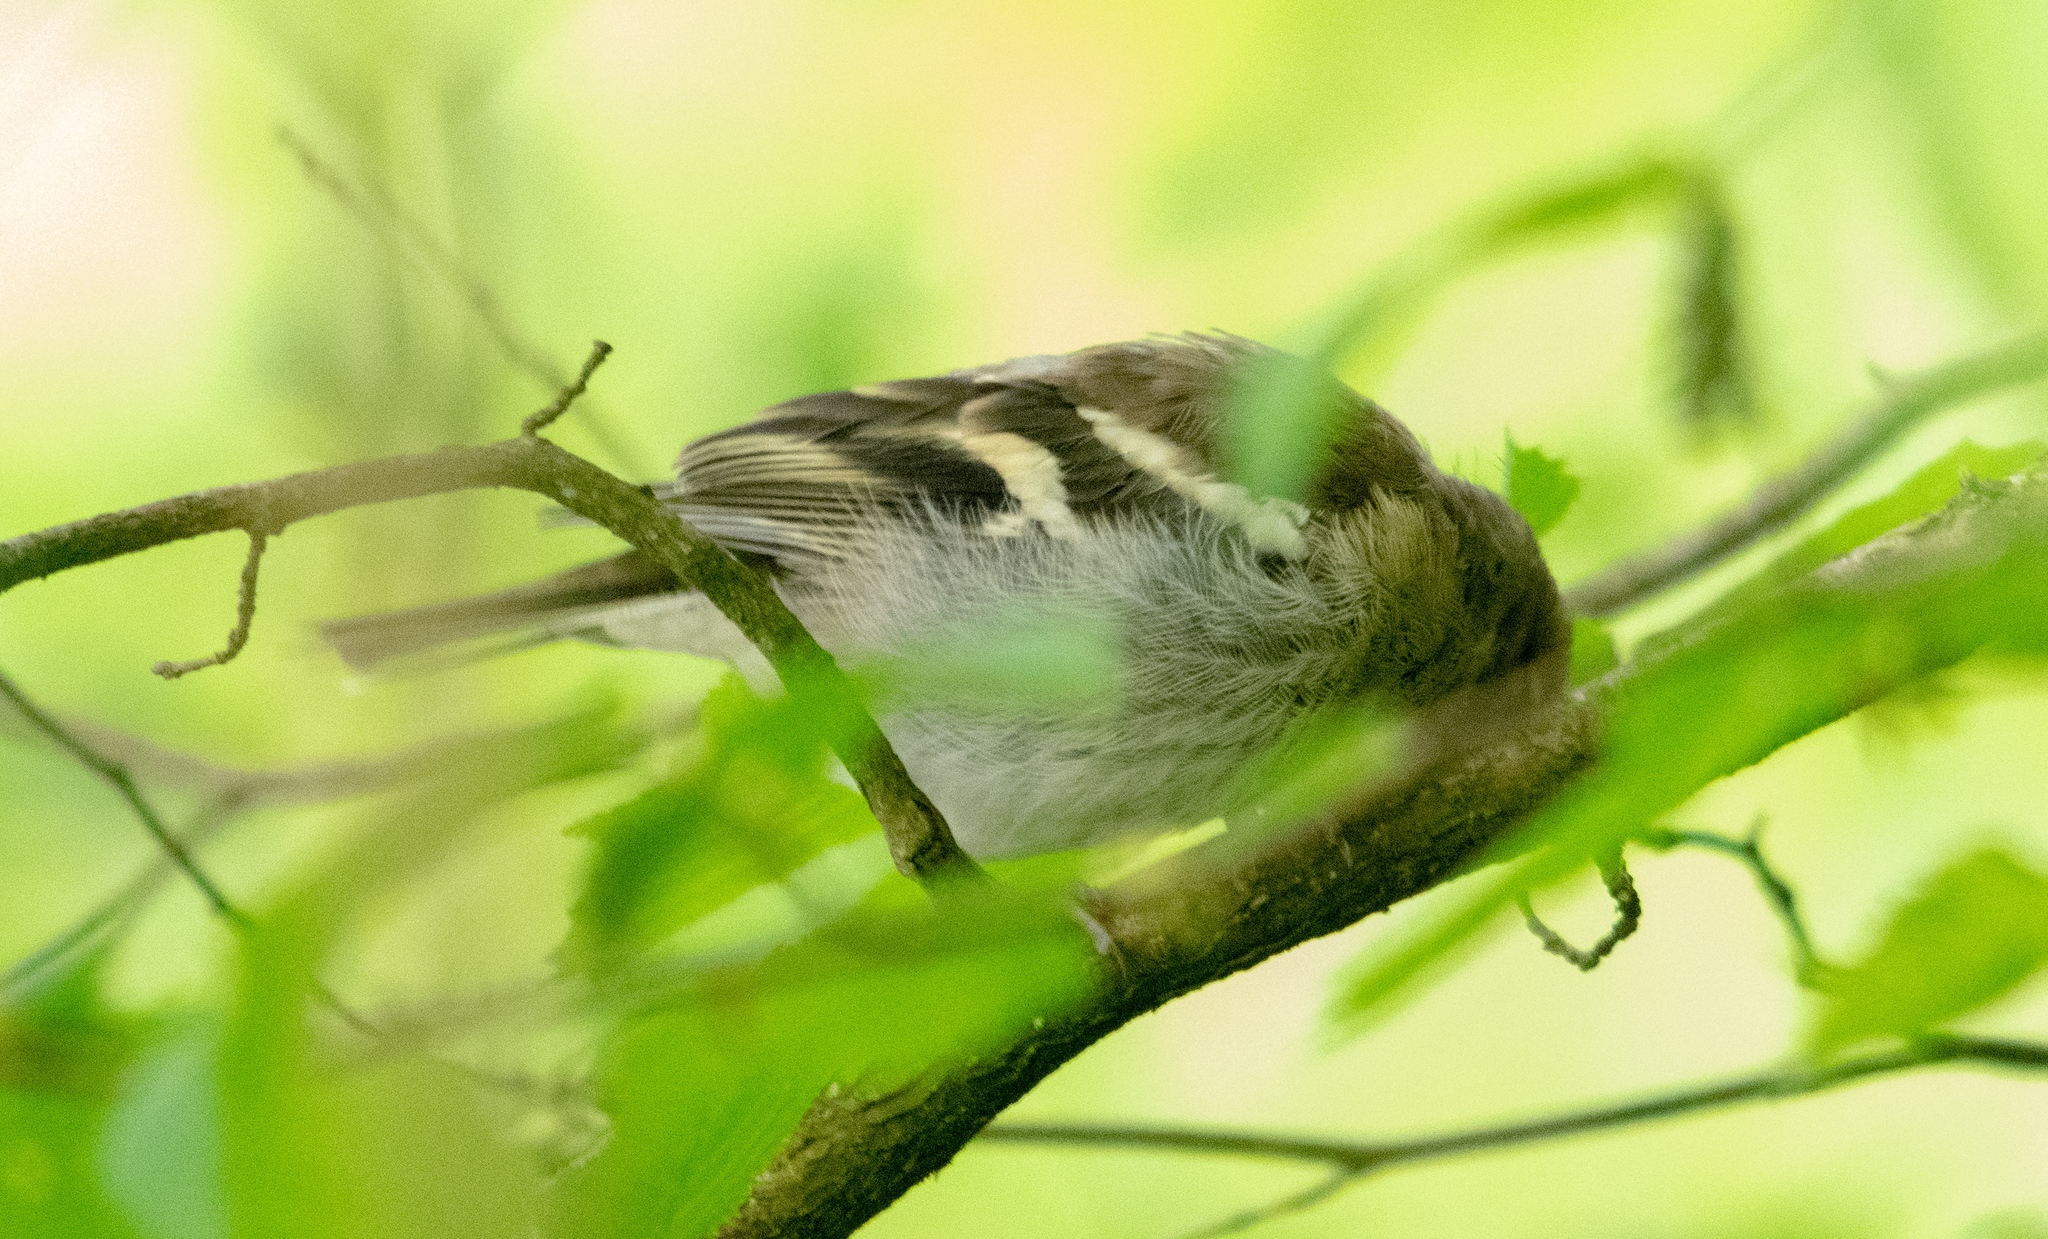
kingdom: Animalia
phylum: Chordata
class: Aves
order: Passeriformes
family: Fringillidae
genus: Fringilla
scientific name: Fringilla coelebs
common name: Common chaffinch
